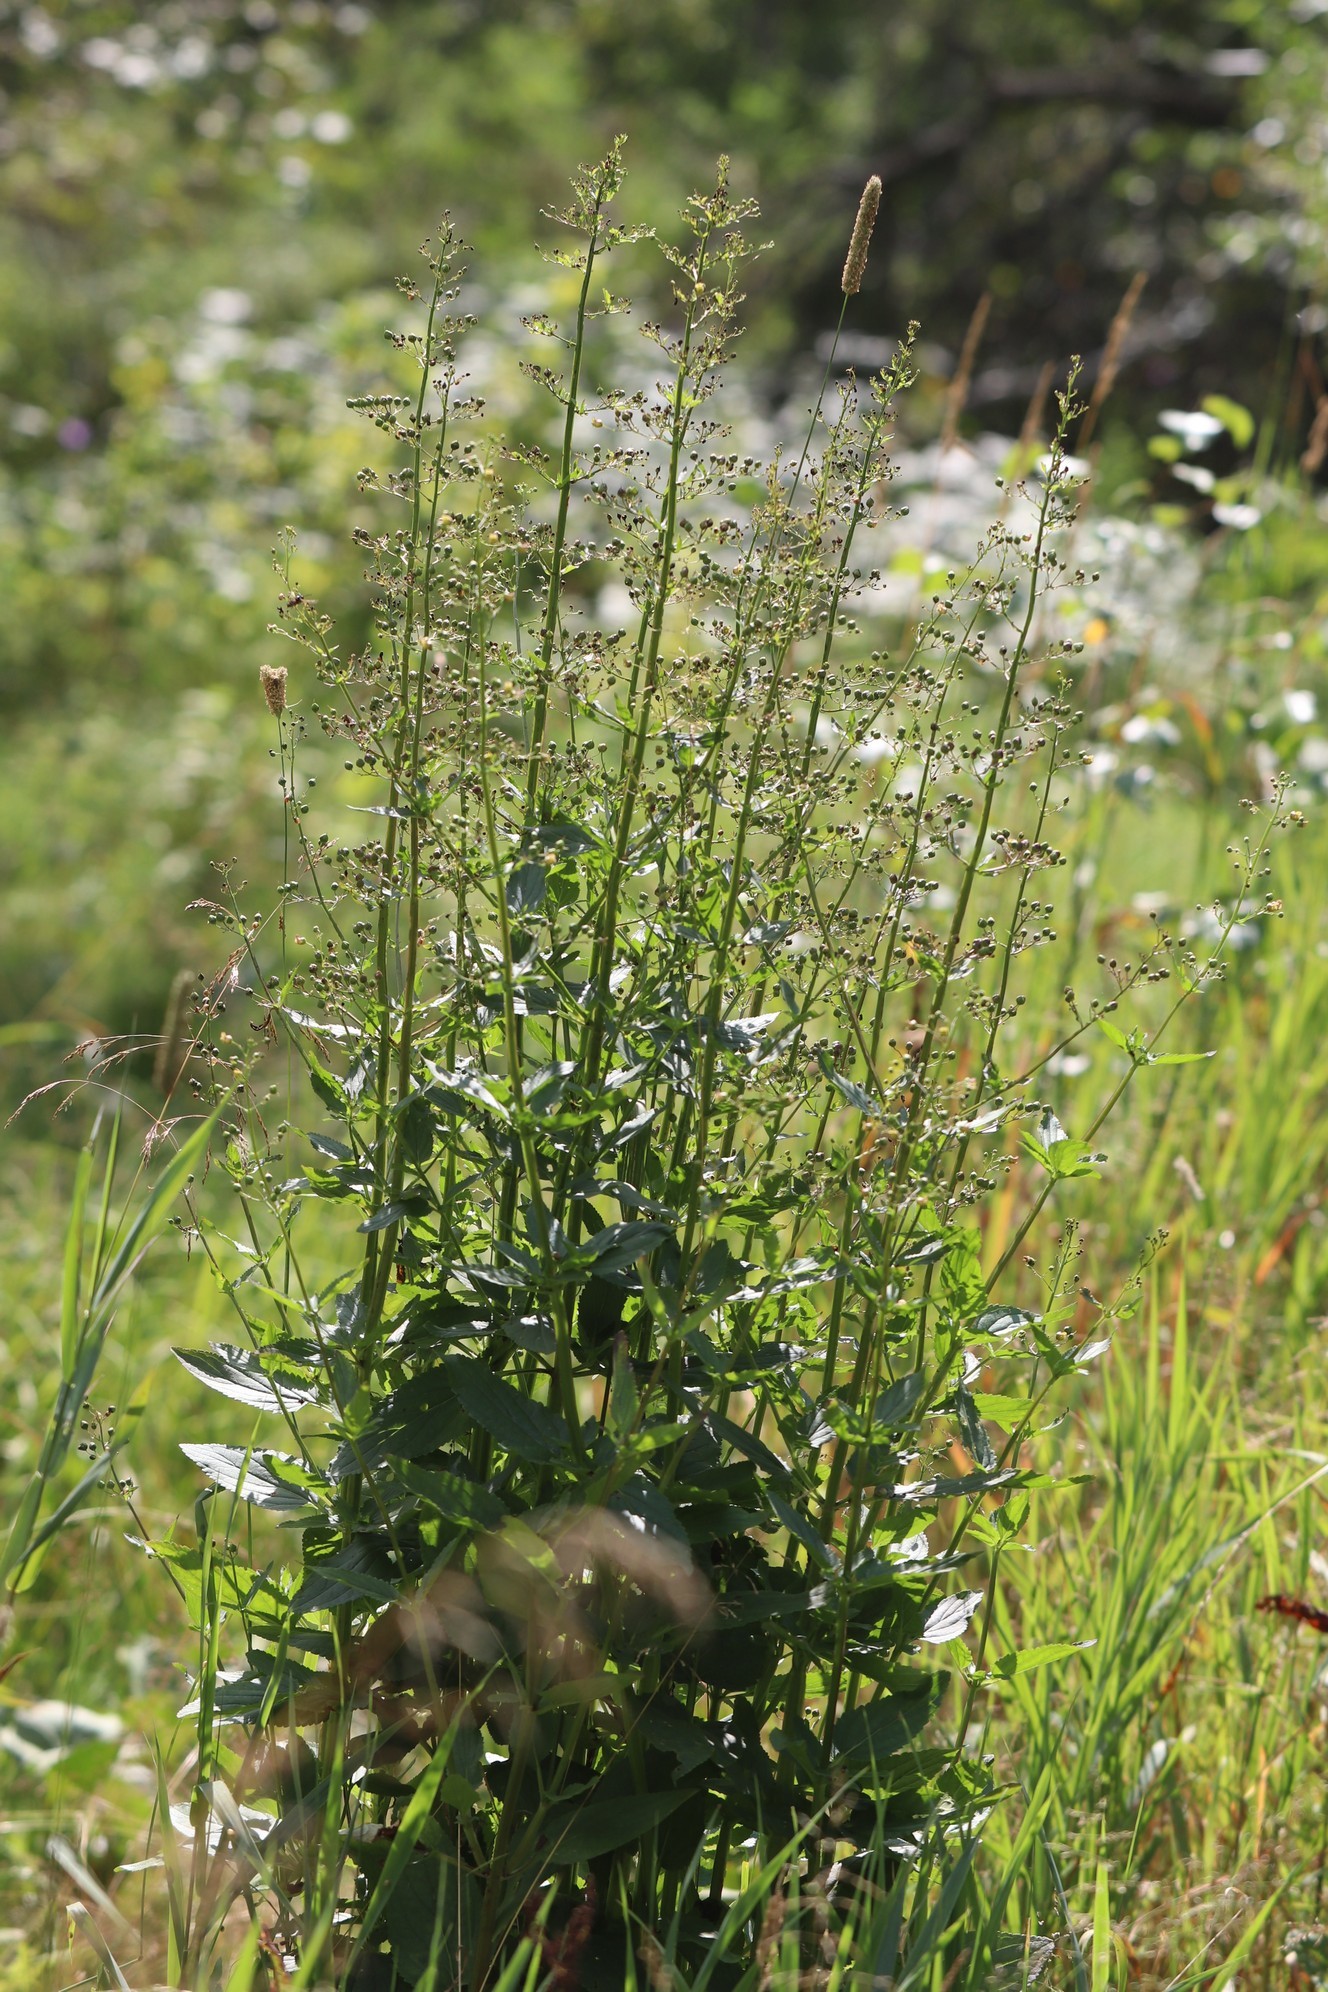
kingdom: Plantae
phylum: Tracheophyta
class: Magnoliopsida
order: Lamiales
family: Scrophulariaceae
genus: Scrophularia
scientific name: Scrophularia nodosa
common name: Common figwort
